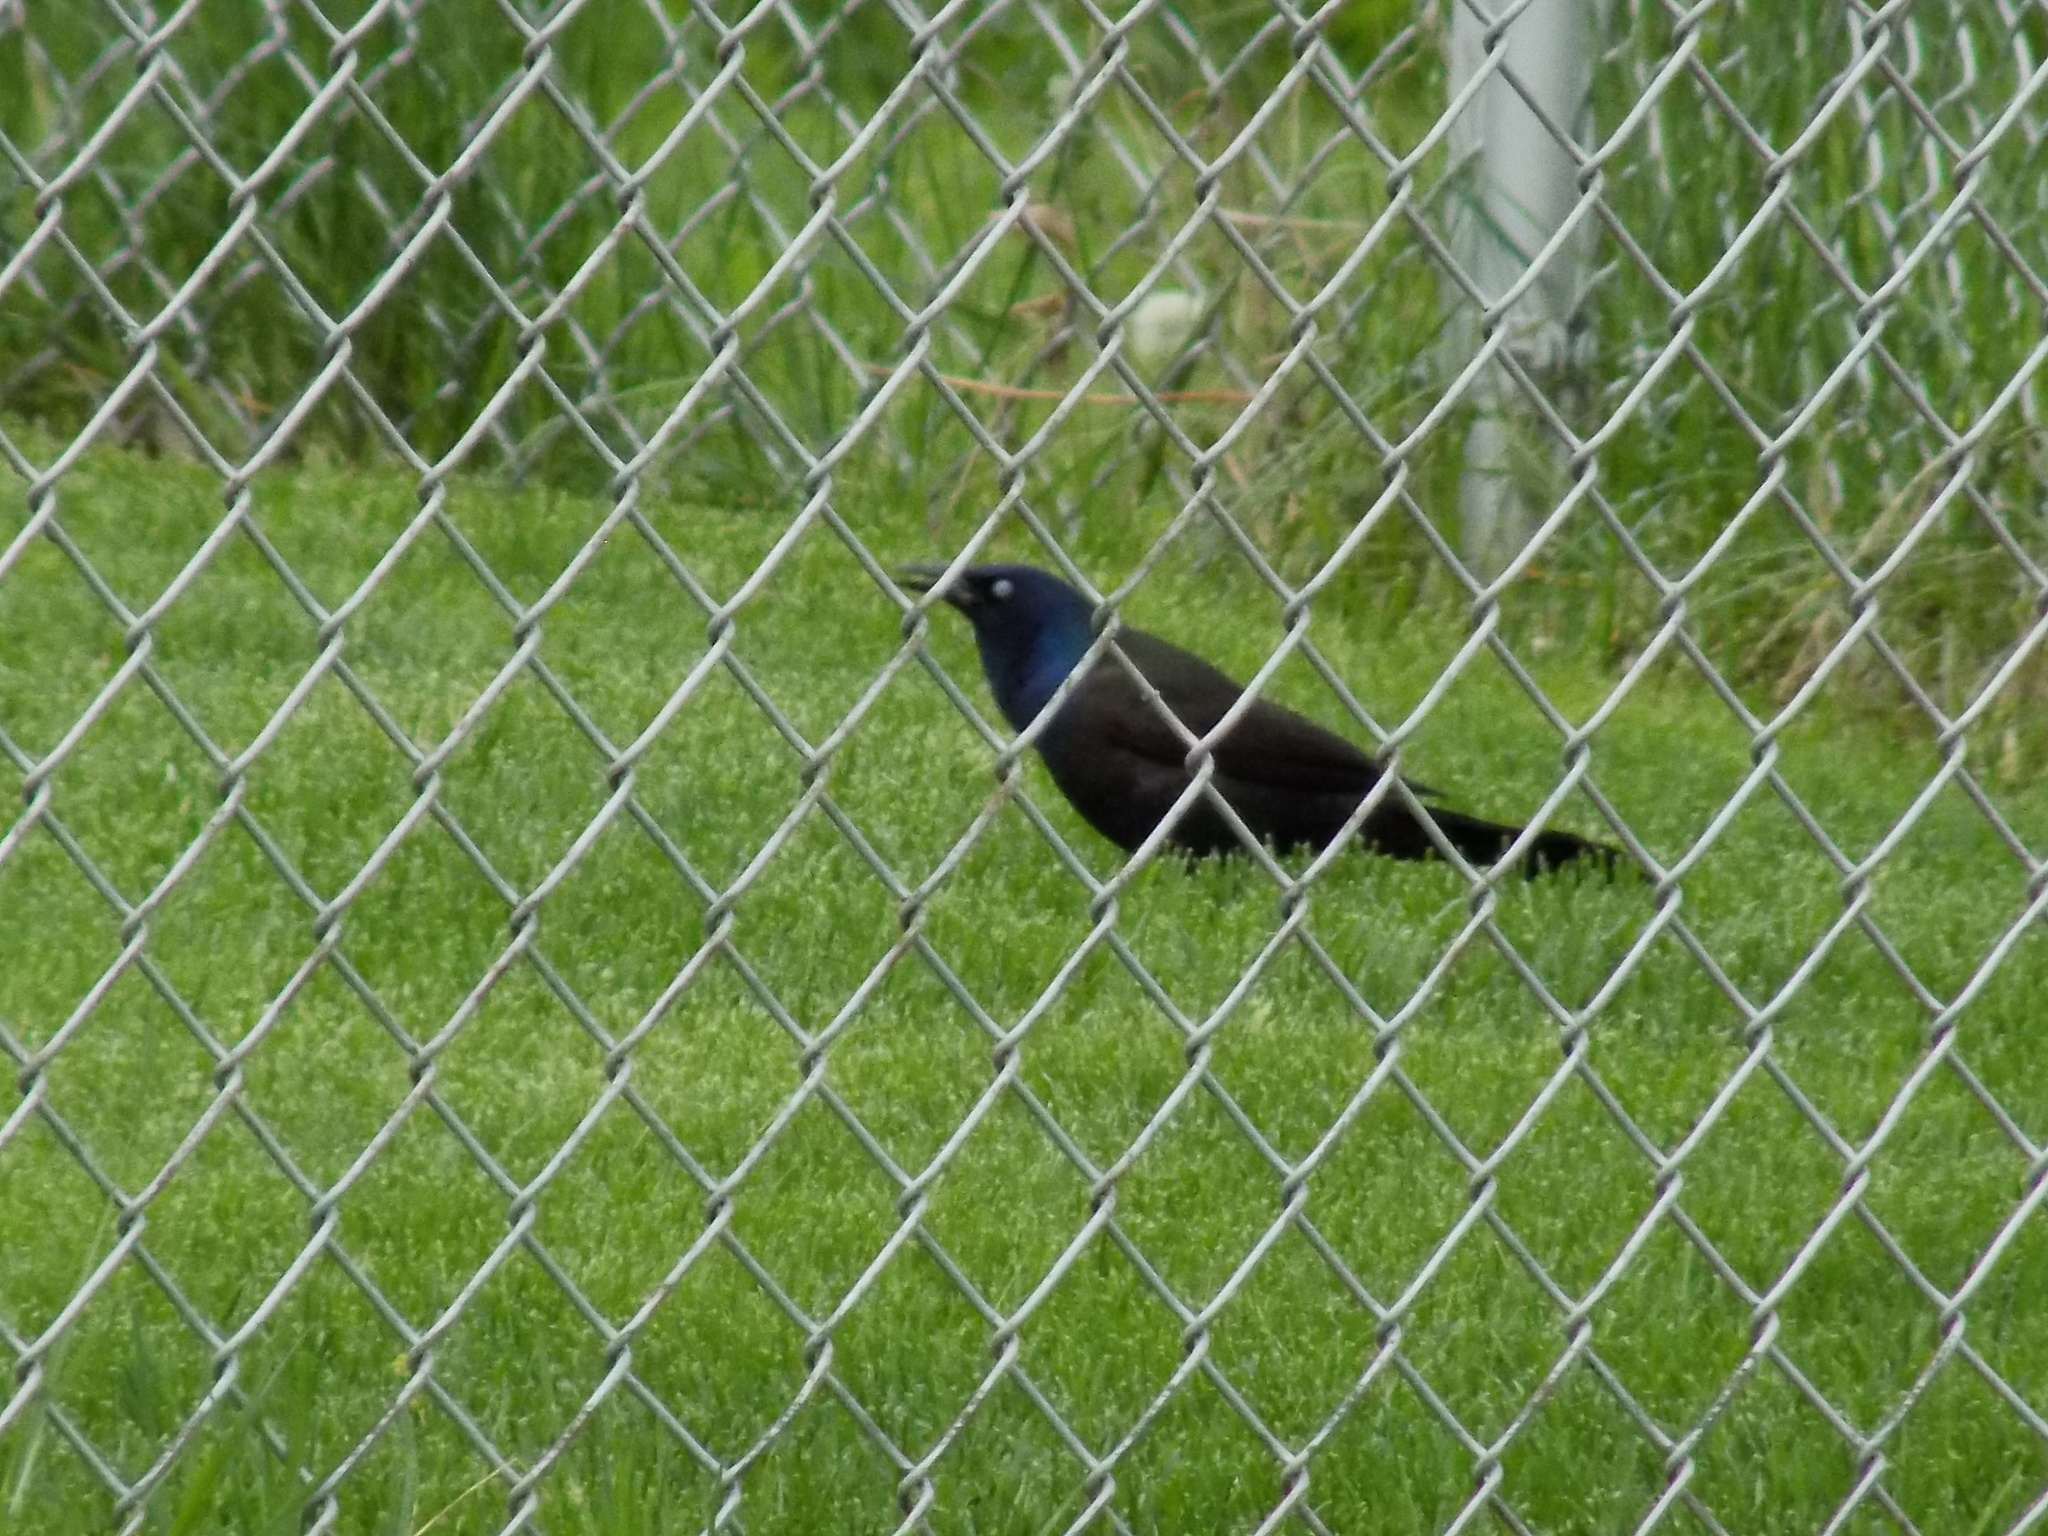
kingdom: Animalia
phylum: Chordata
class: Aves
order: Passeriformes
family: Icteridae
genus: Quiscalus
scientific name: Quiscalus quiscula
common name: Common grackle
